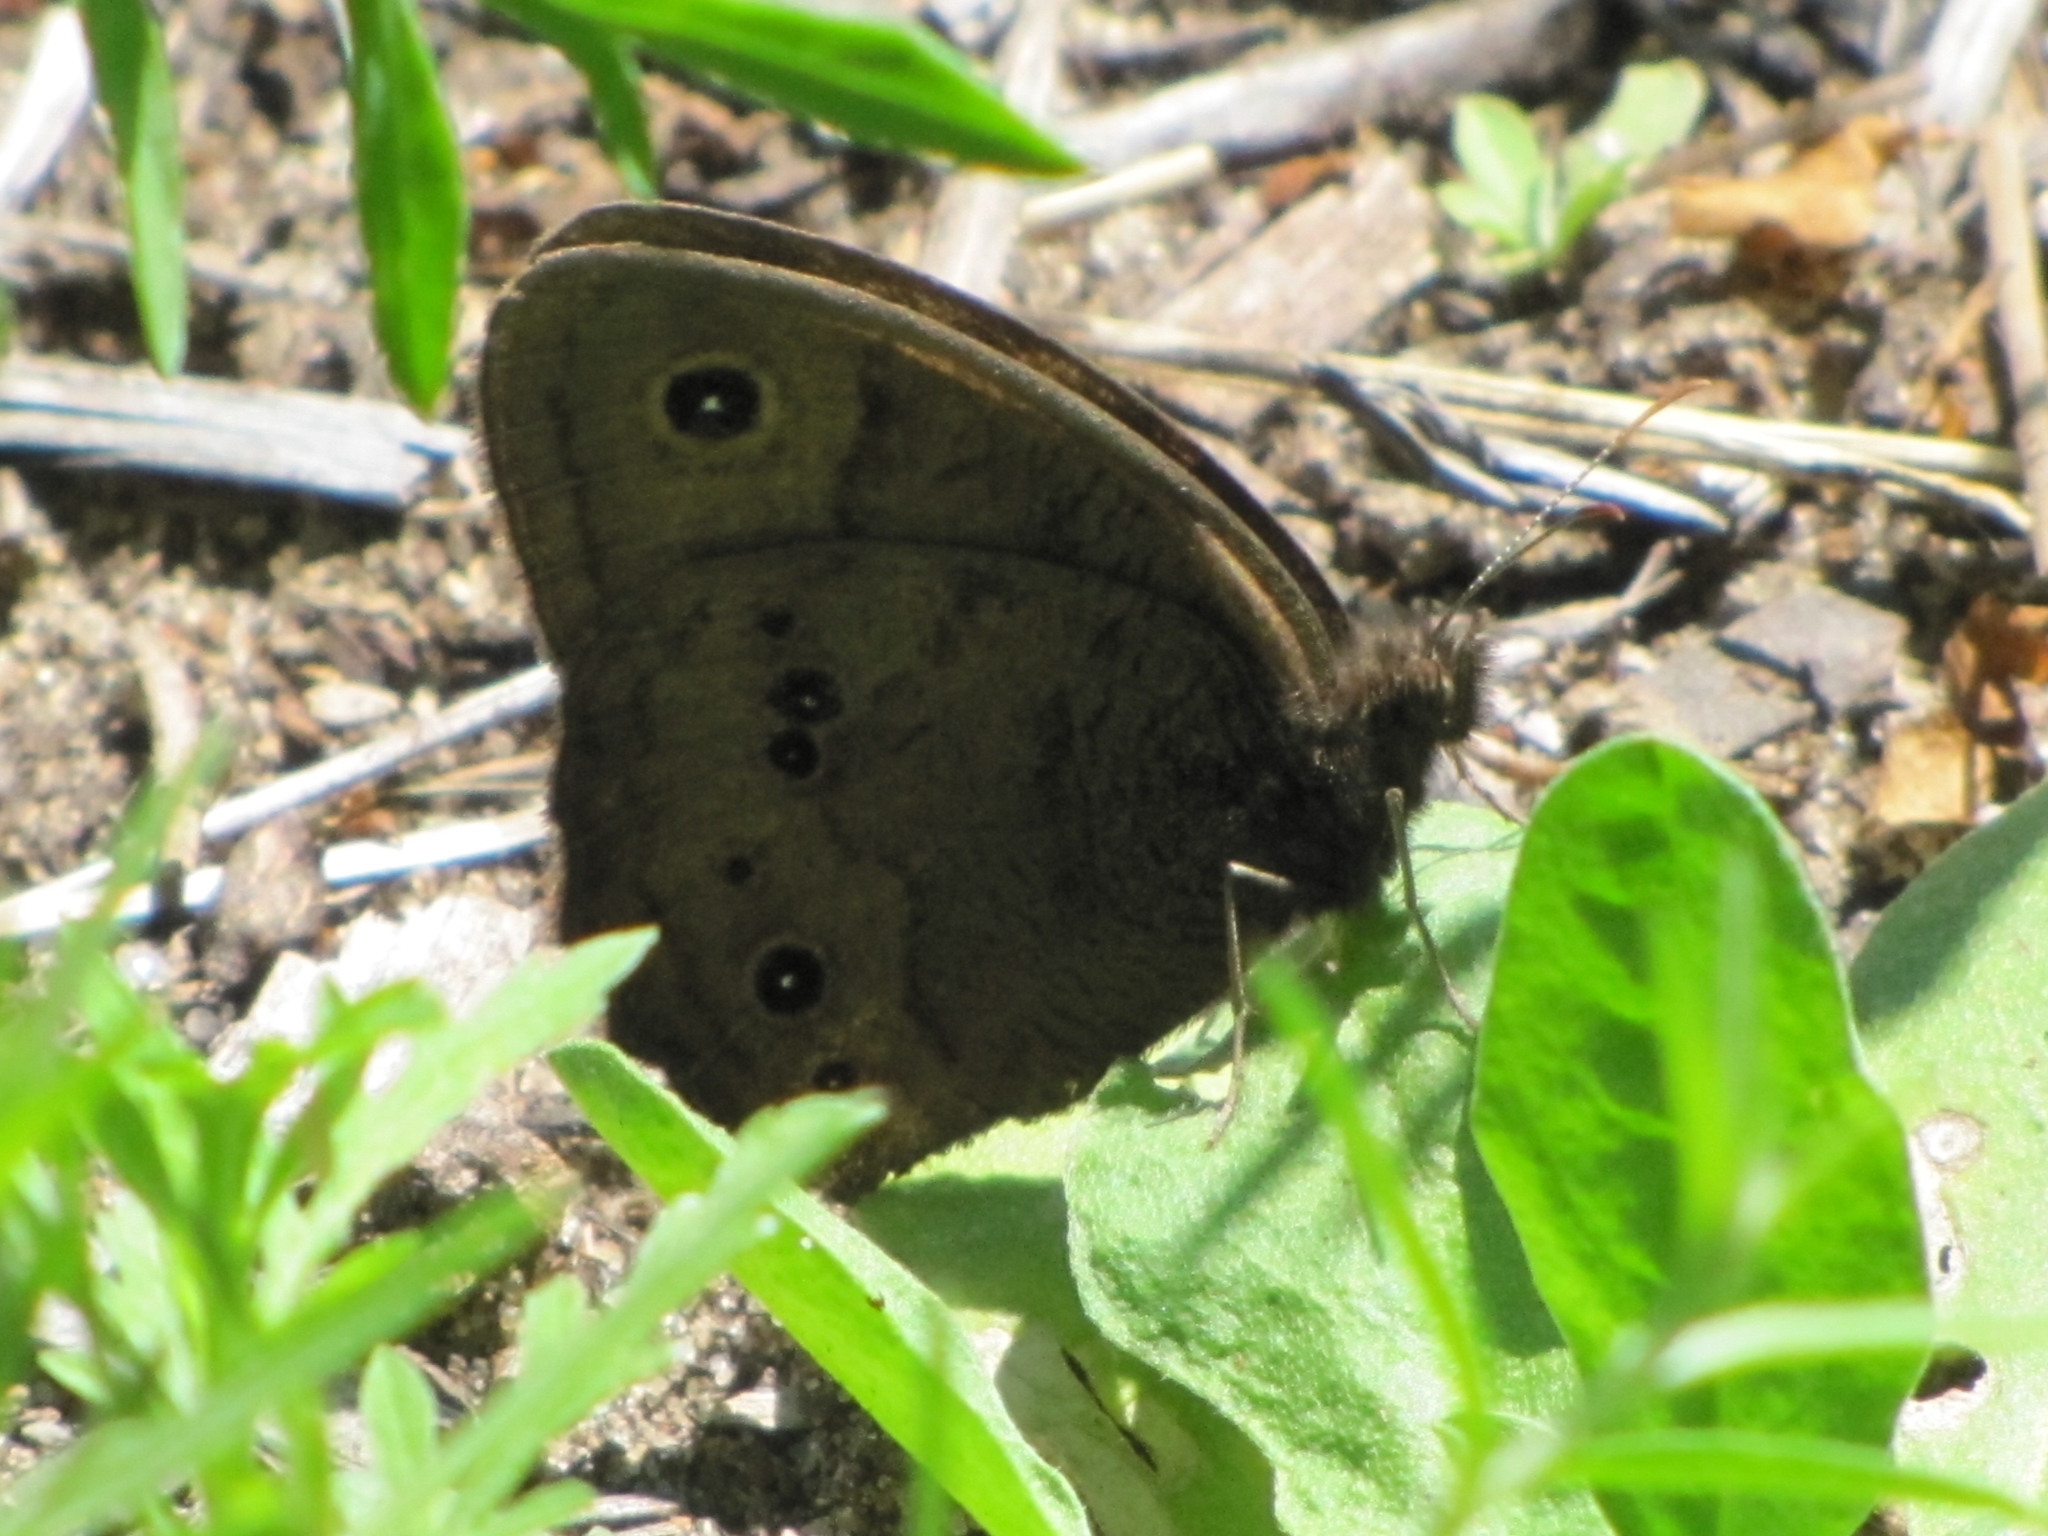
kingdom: Animalia
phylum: Arthropoda
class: Insecta
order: Lepidoptera
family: Nymphalidae
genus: Cercyonis
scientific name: Cercyonis pegala
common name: Common wood-nymph
